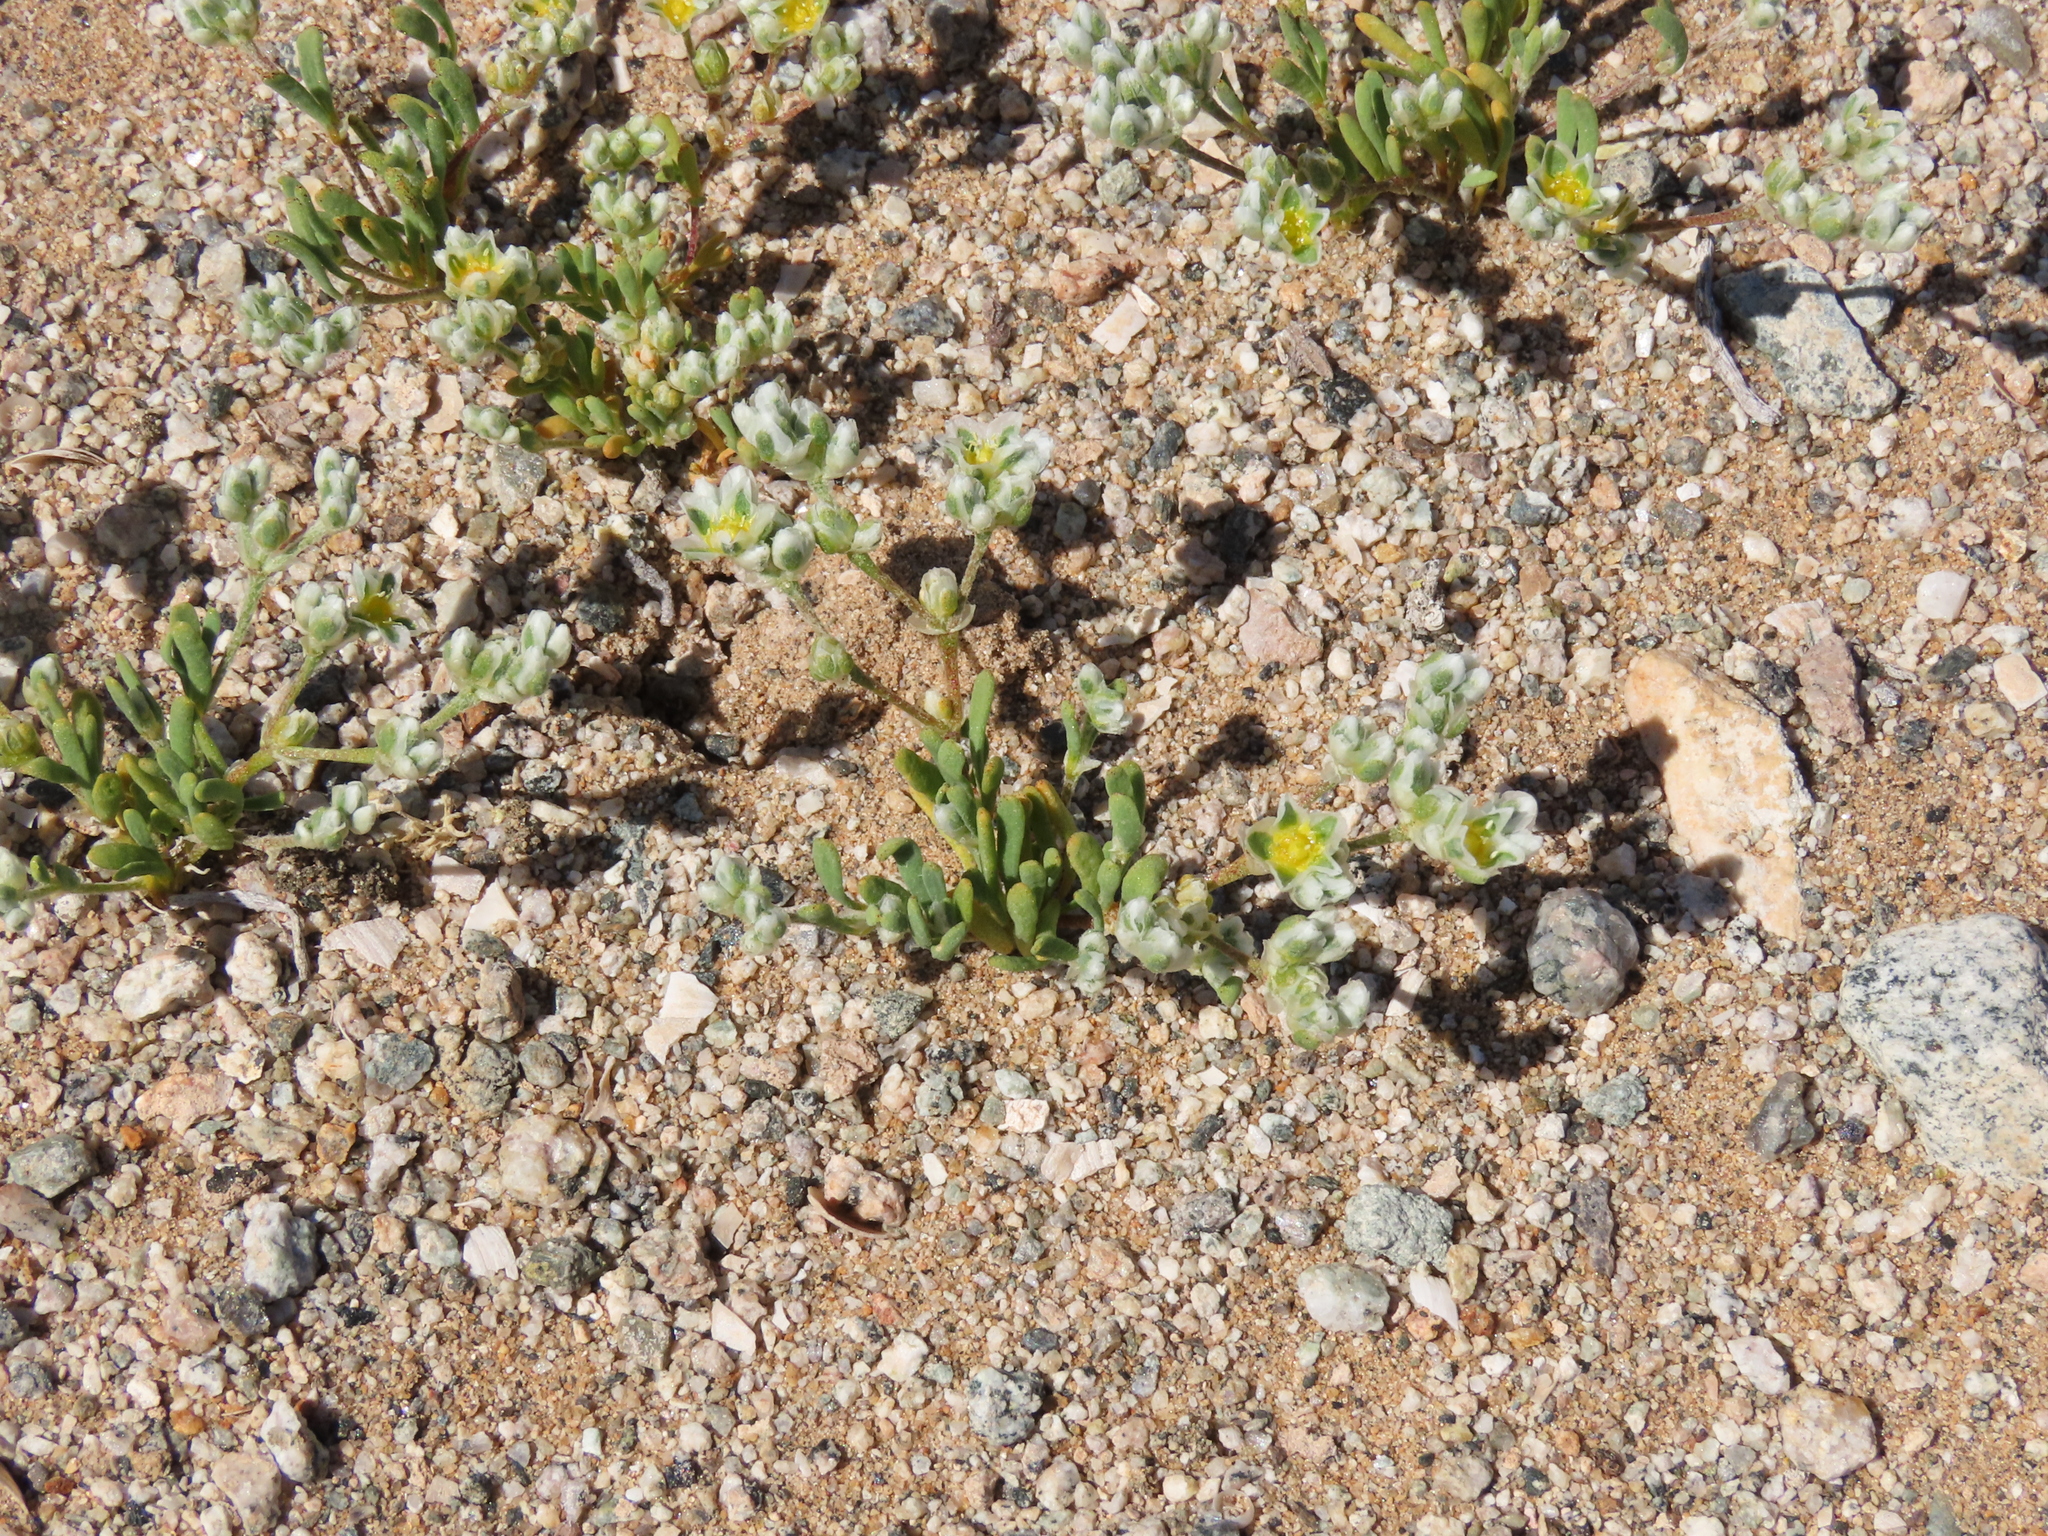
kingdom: Plantae
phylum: Tracheophyta
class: Magnoliopsida
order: Caryophyllales
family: Caryophyllaceae
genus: Microphyes
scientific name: Microphyes litoralis
